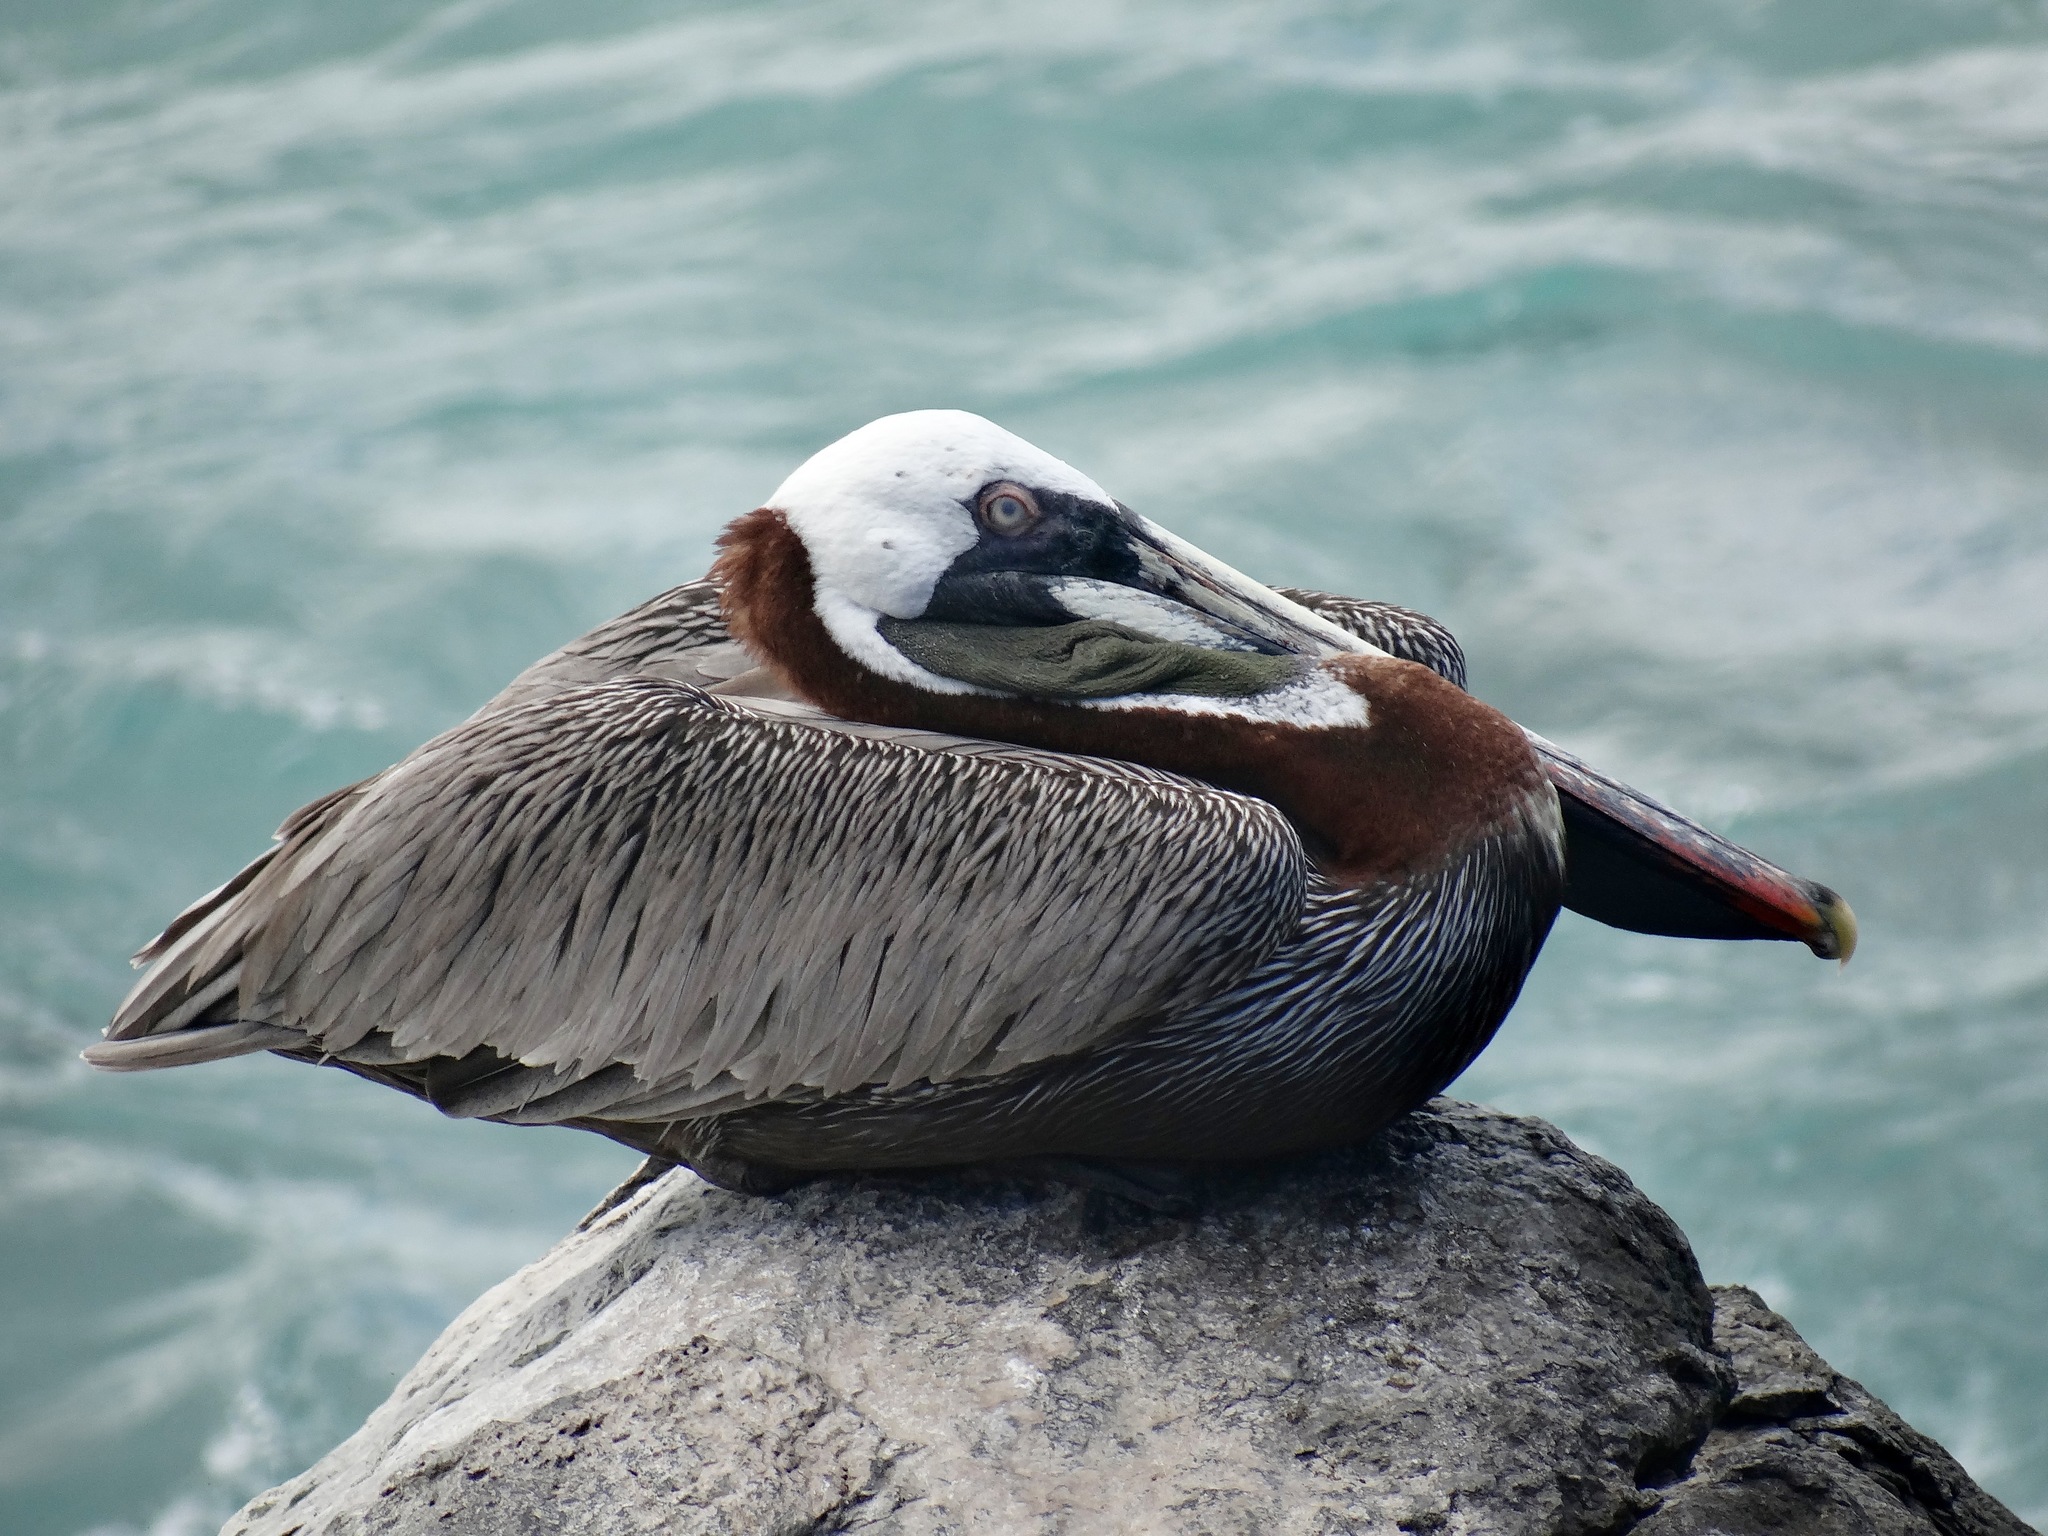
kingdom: Animalia
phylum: Chordata
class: Aves
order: Pelecaniformes
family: Pelecanidae
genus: Pelecanus
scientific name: Pelecanus occidentalis
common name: Brown pelican
